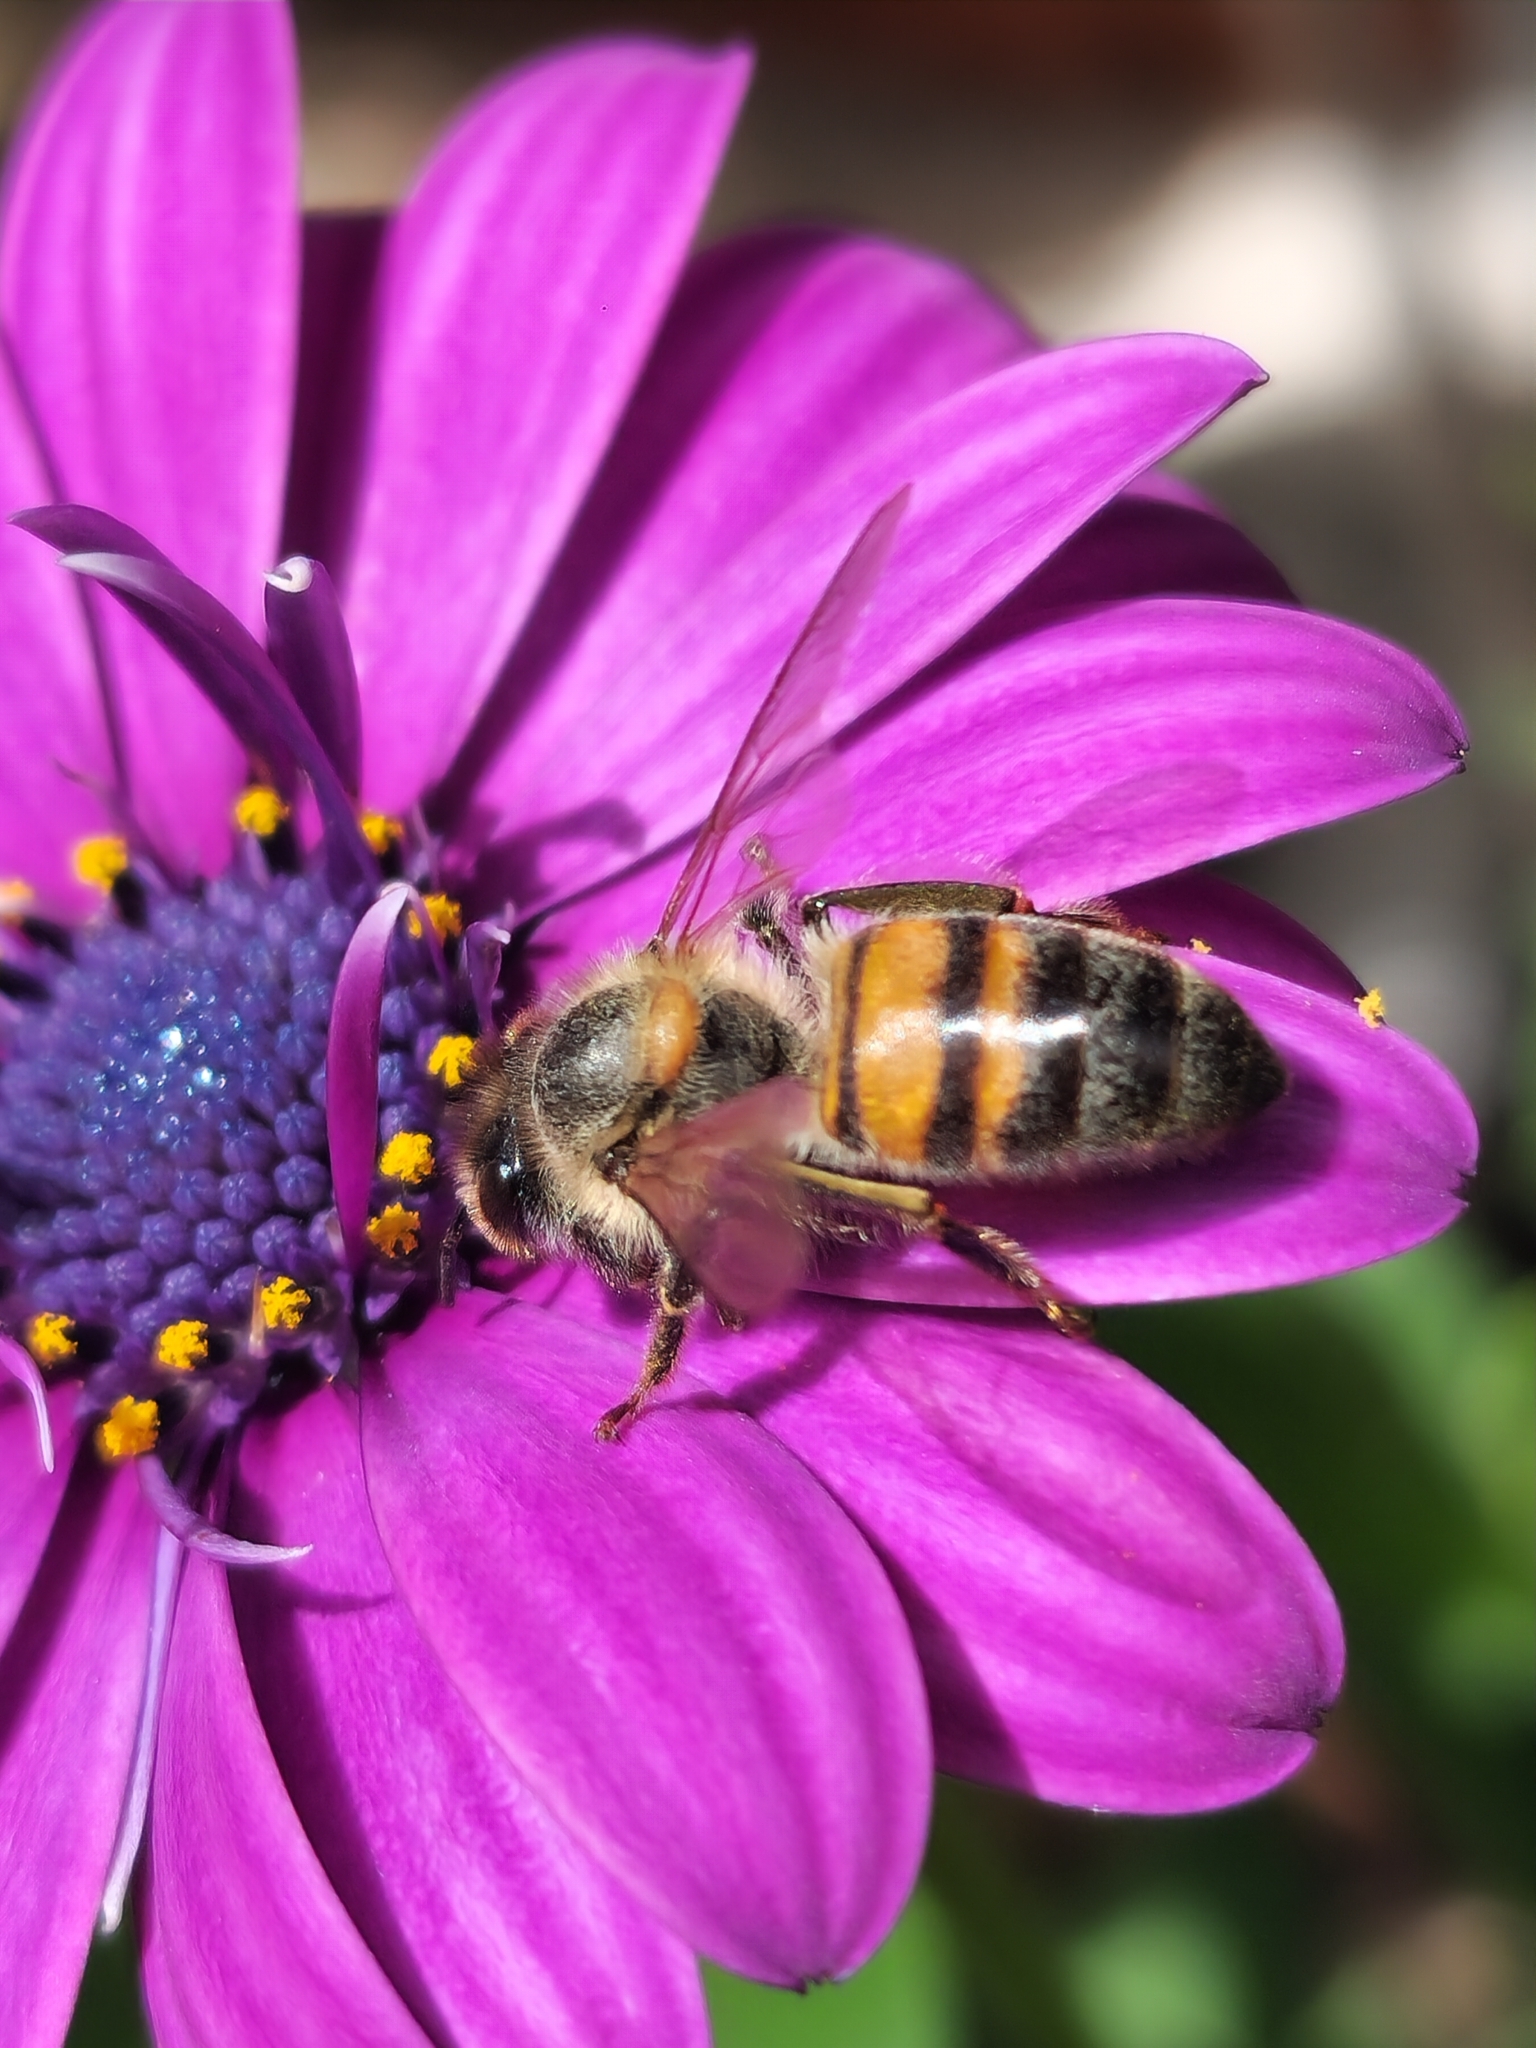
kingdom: Animalia
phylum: Arthropoda
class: Insecta
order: Hymenoptera
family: Apidae
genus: Apis
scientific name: Apis mellifera
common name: Honey bee
